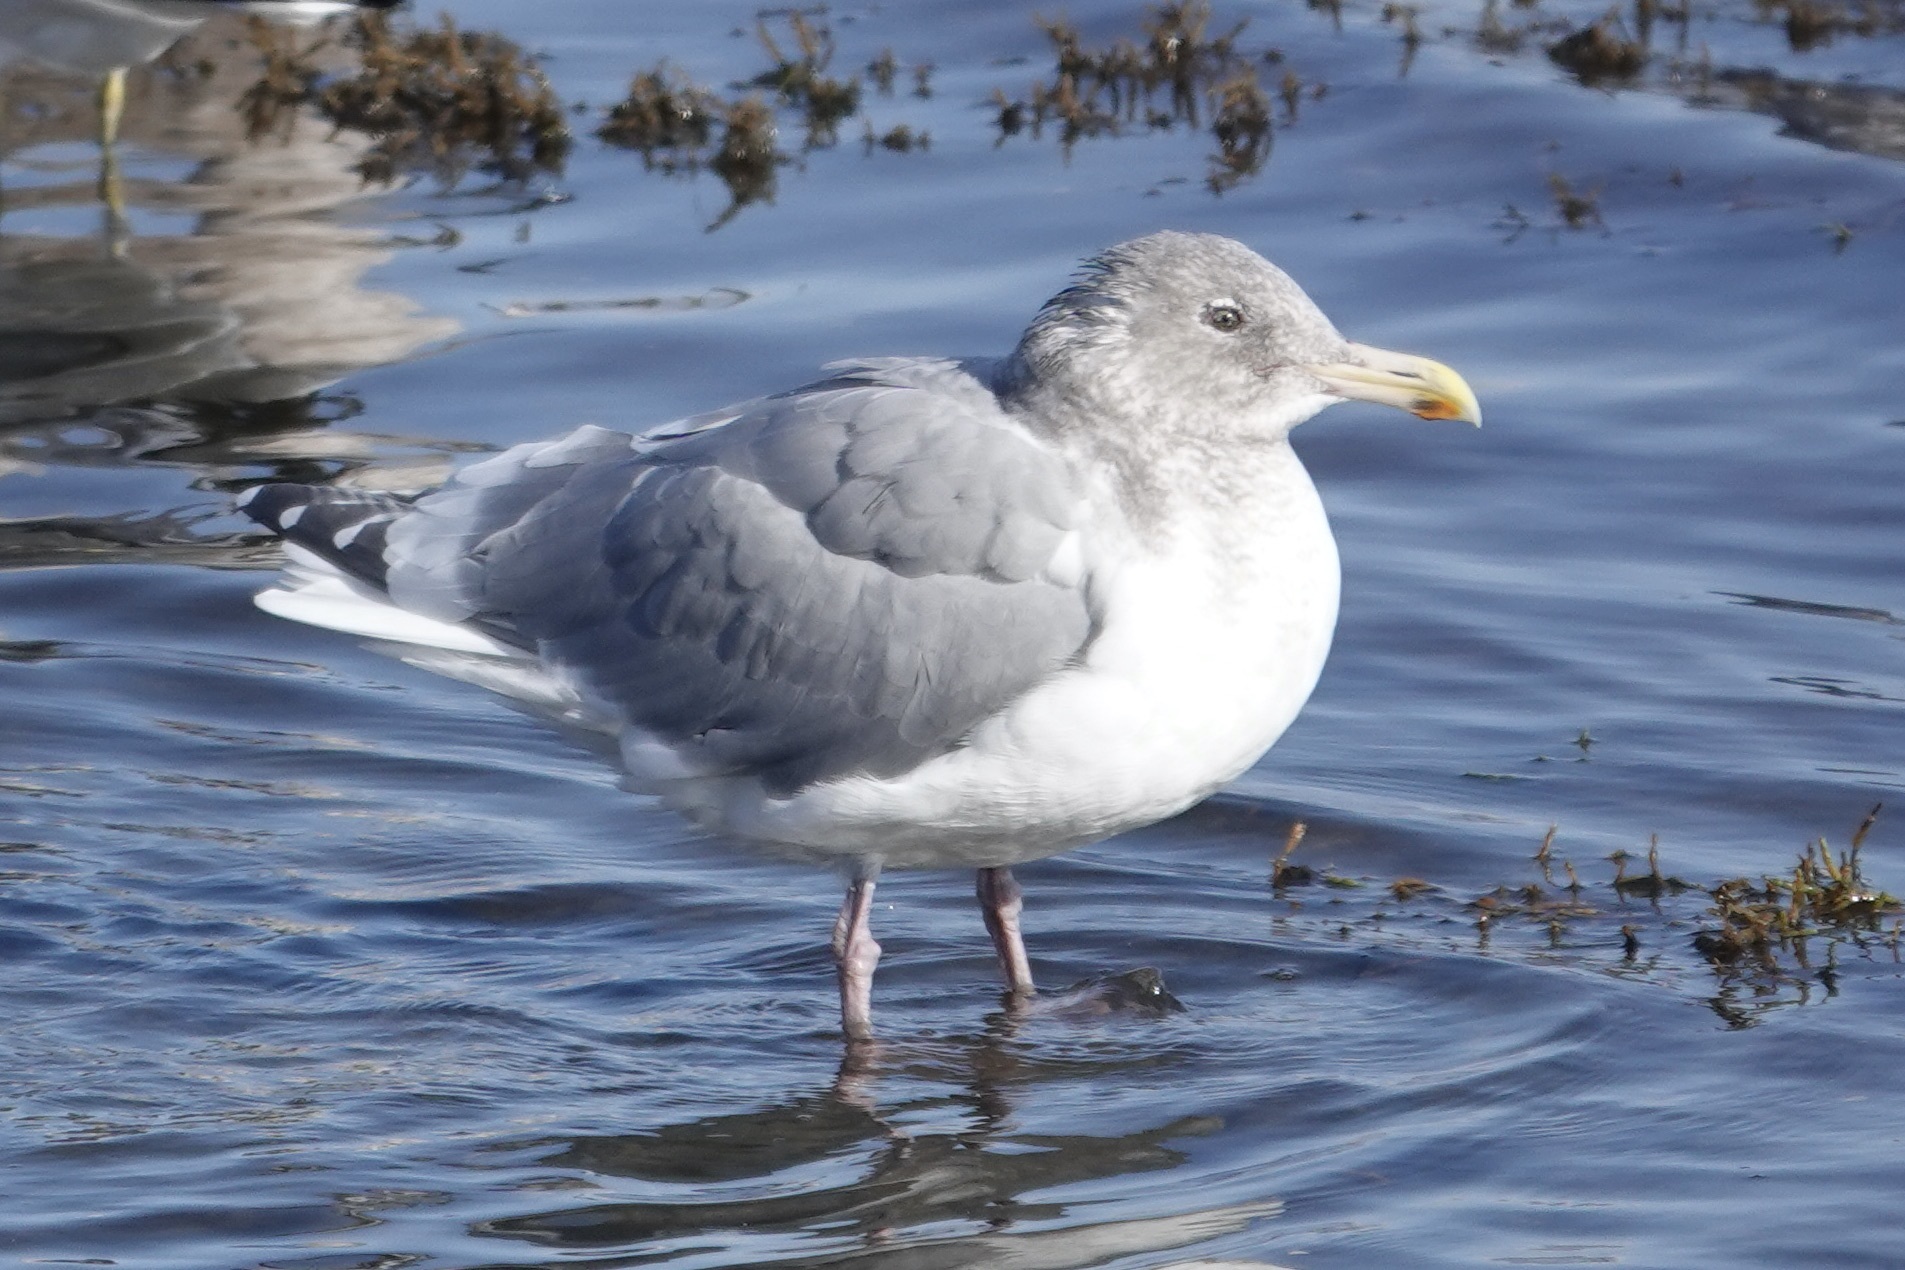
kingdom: Animalia
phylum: Chordata
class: Aves
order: Charadriiformes
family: Laridae
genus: Larus
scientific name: Larus
